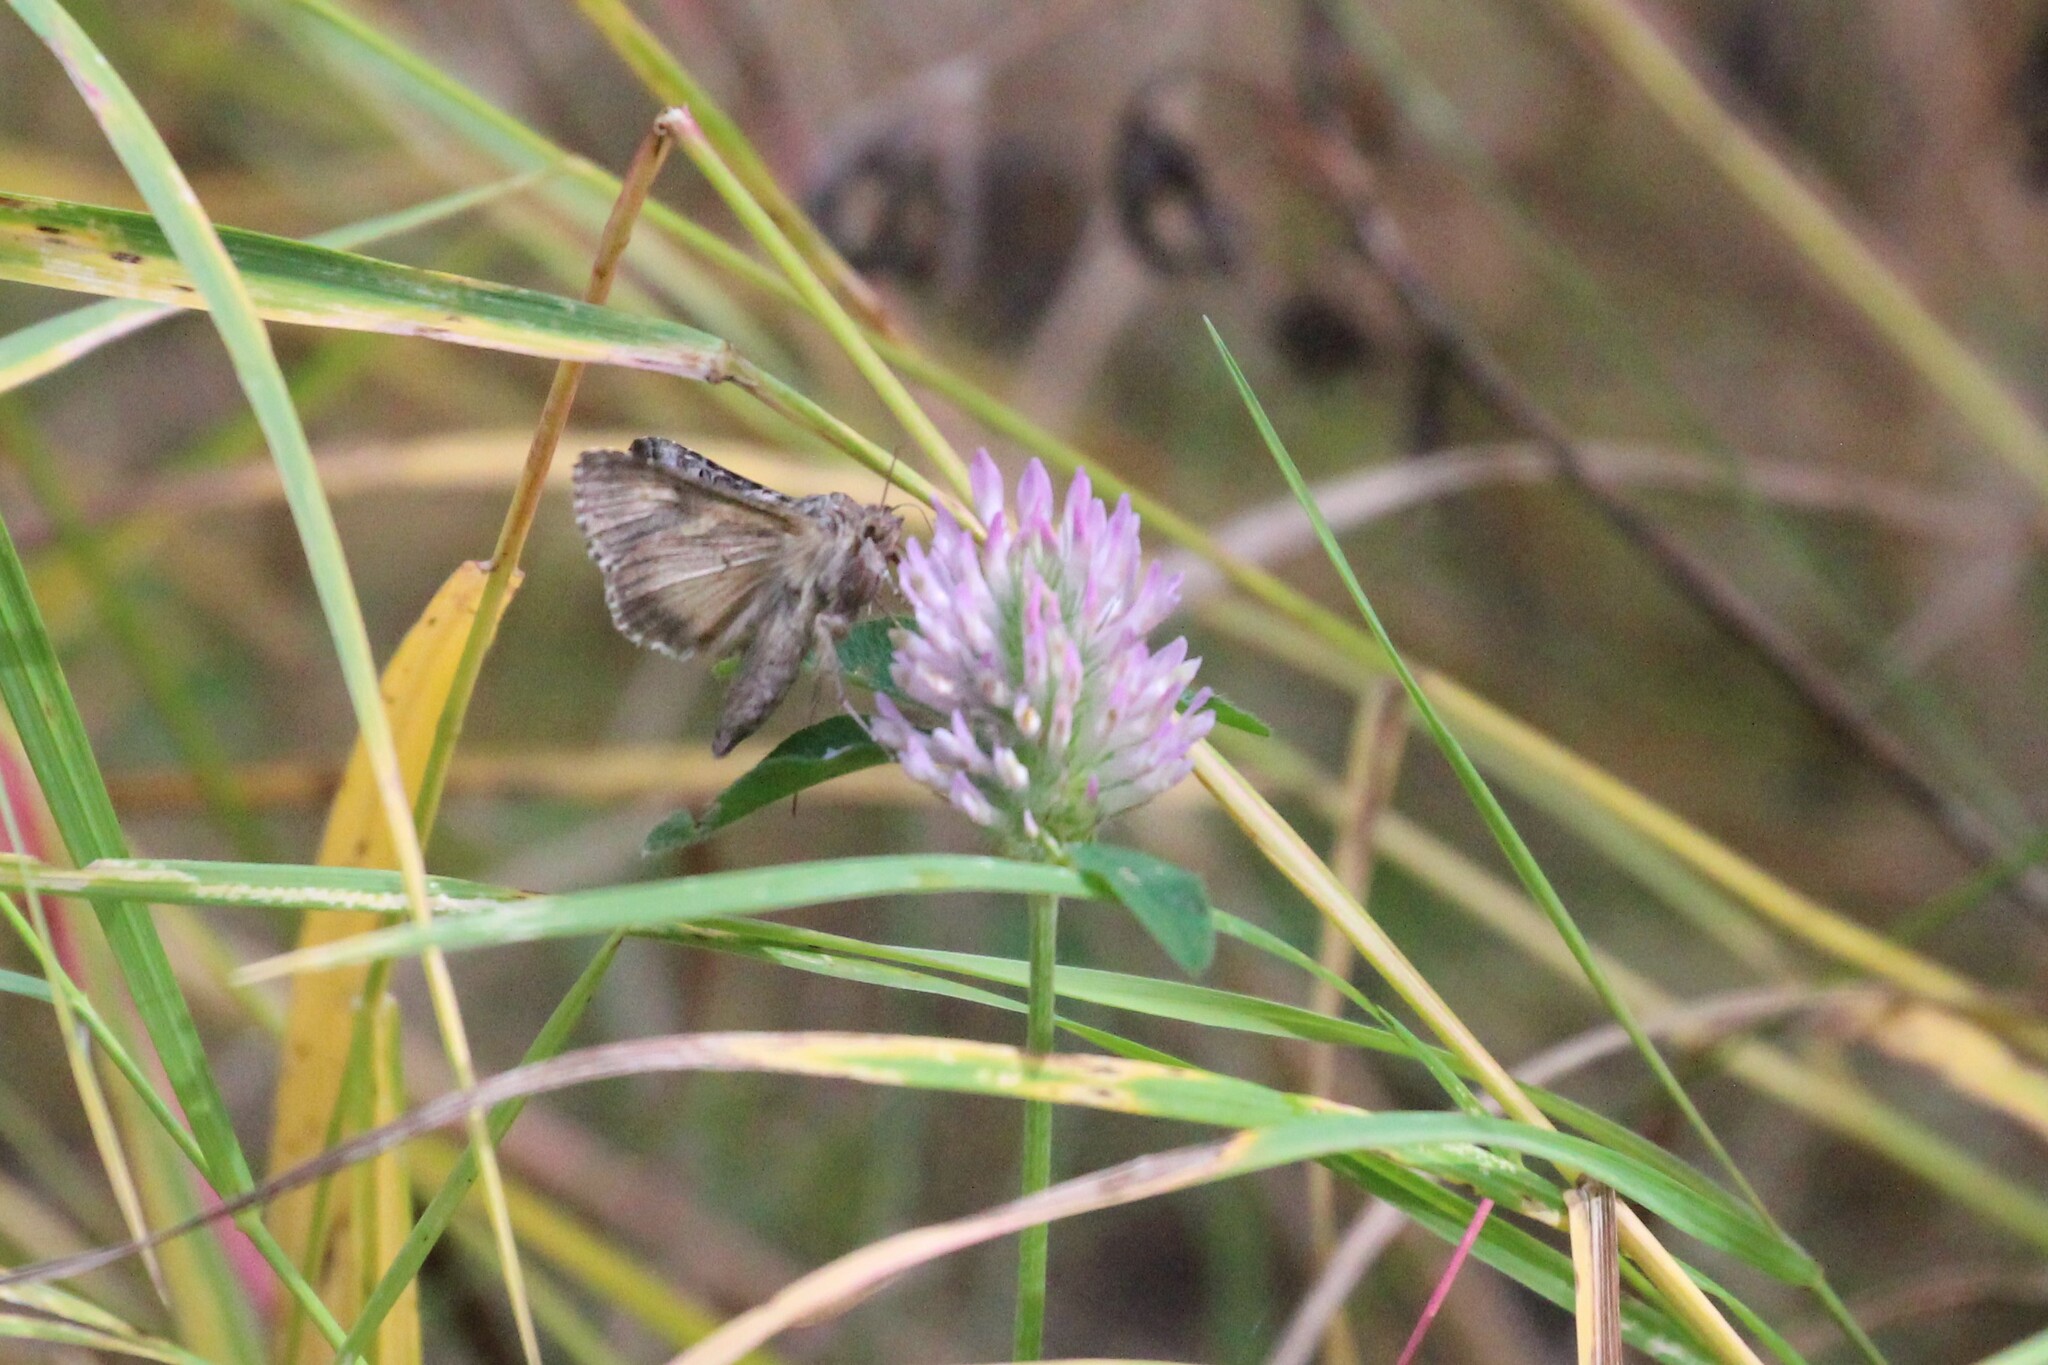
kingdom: Animalia
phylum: Arthropoda
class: Insecta
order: Lepidoptera
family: Noctuidae
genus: Autographa
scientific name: Autographa californica
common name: Alfalfa looper
